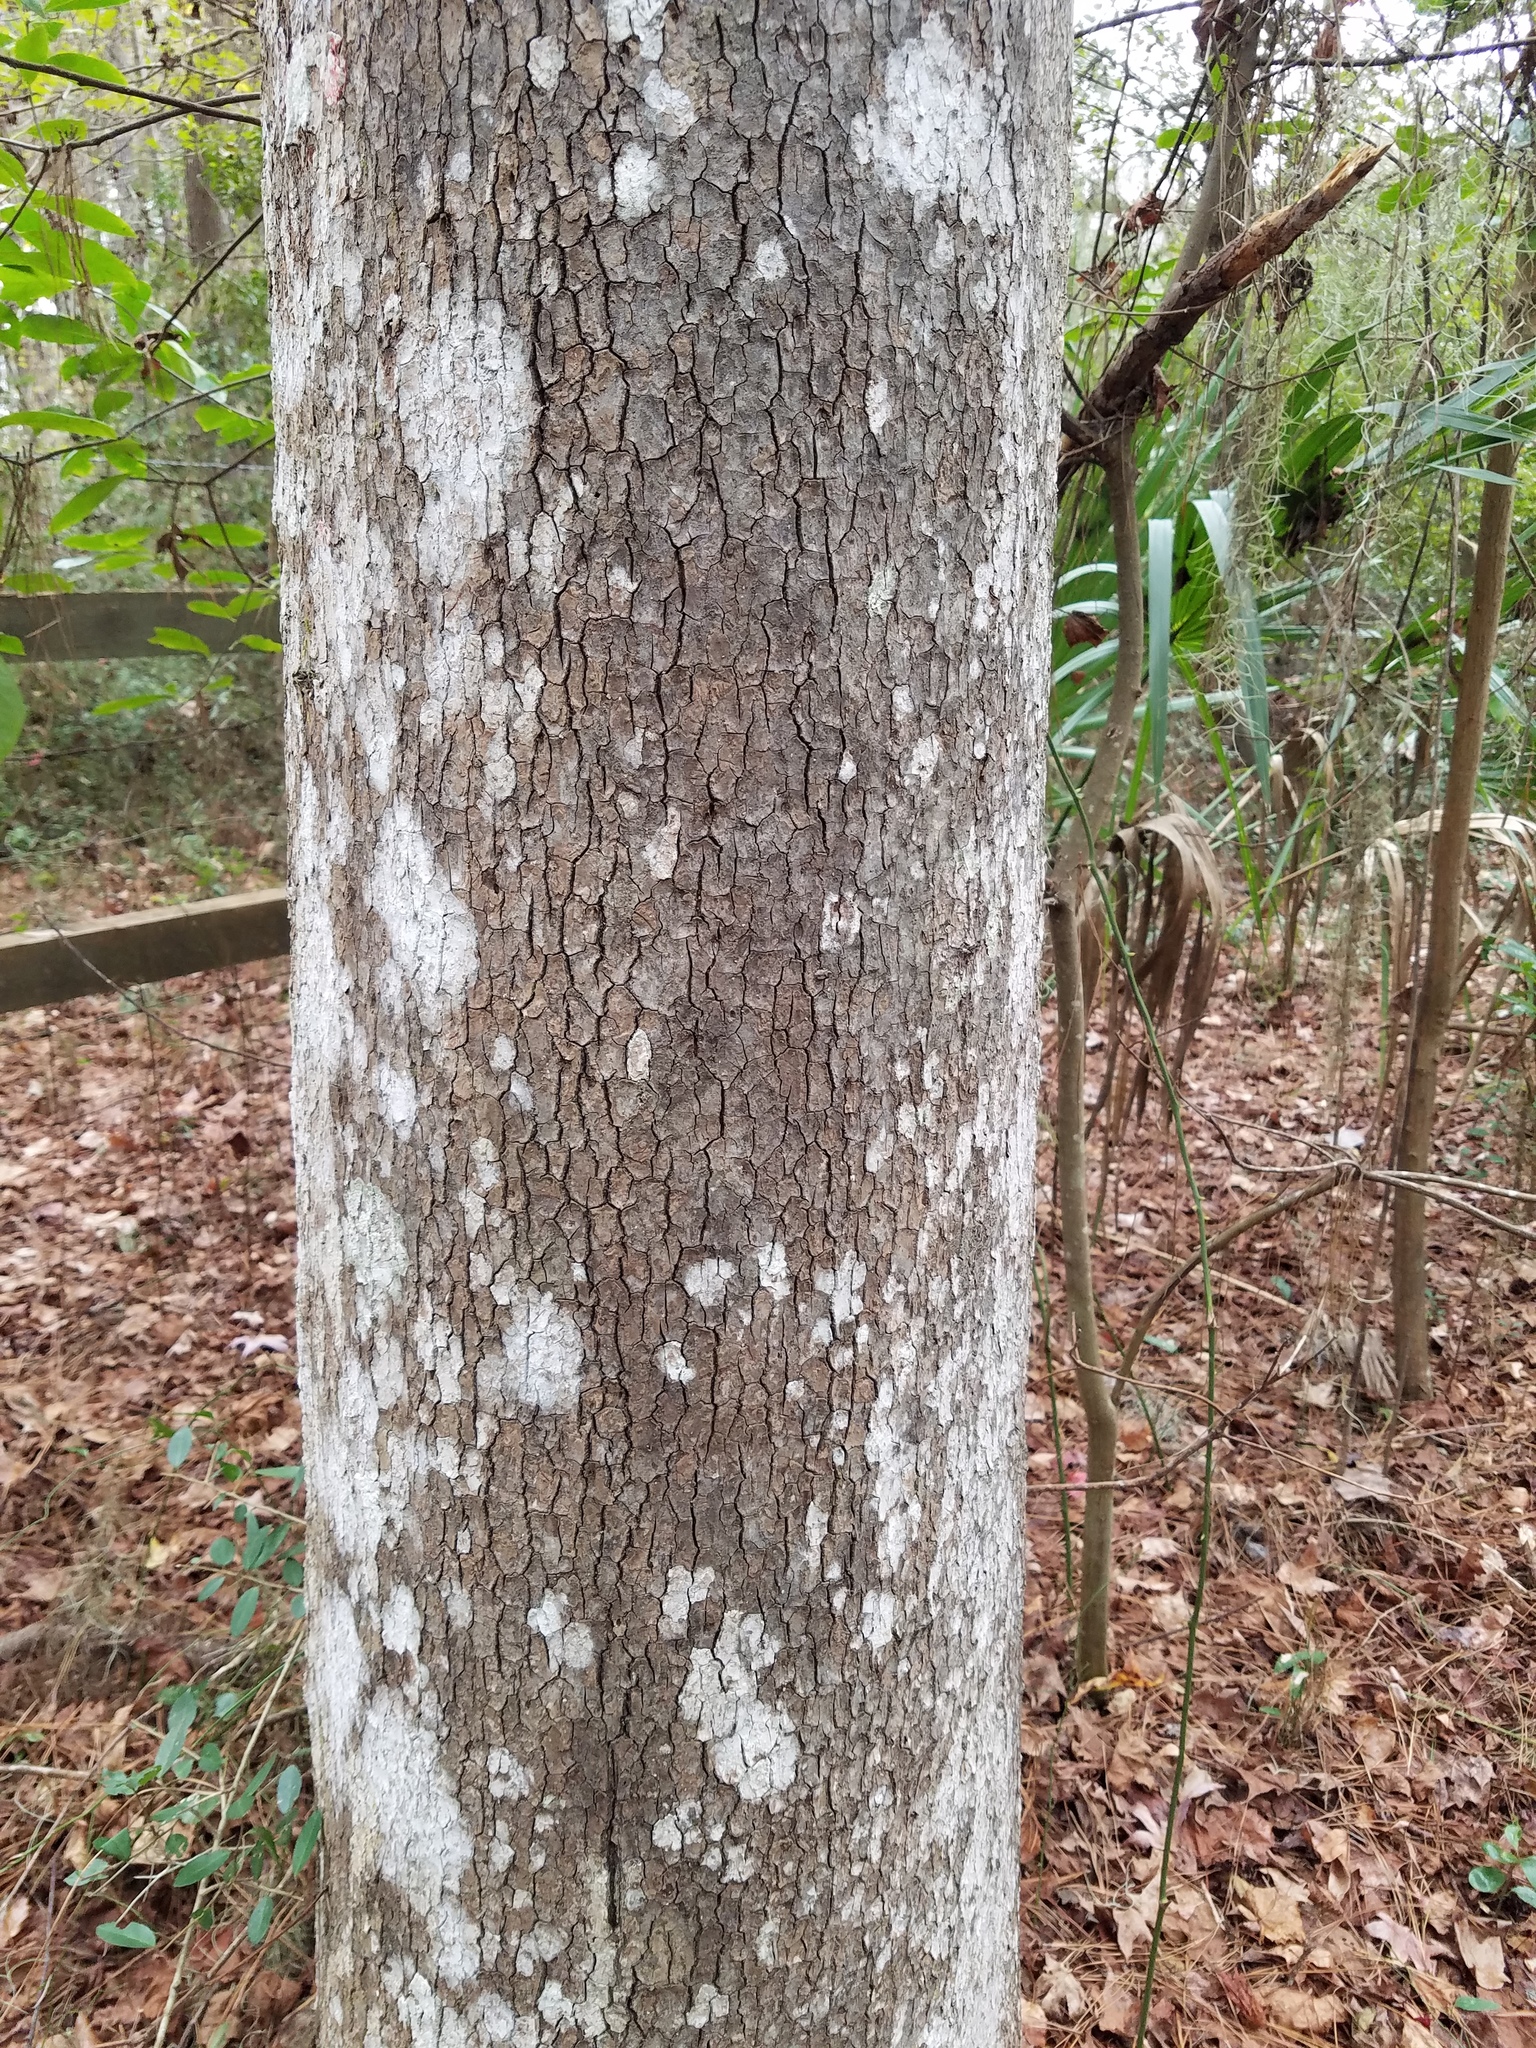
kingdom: Plantae
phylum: Tracheophyta
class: Magnoliopsida
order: Saxifragales
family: Altingiaceae
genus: Liquidambar
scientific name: Liquidambar styraciflua
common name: Sweet gum
